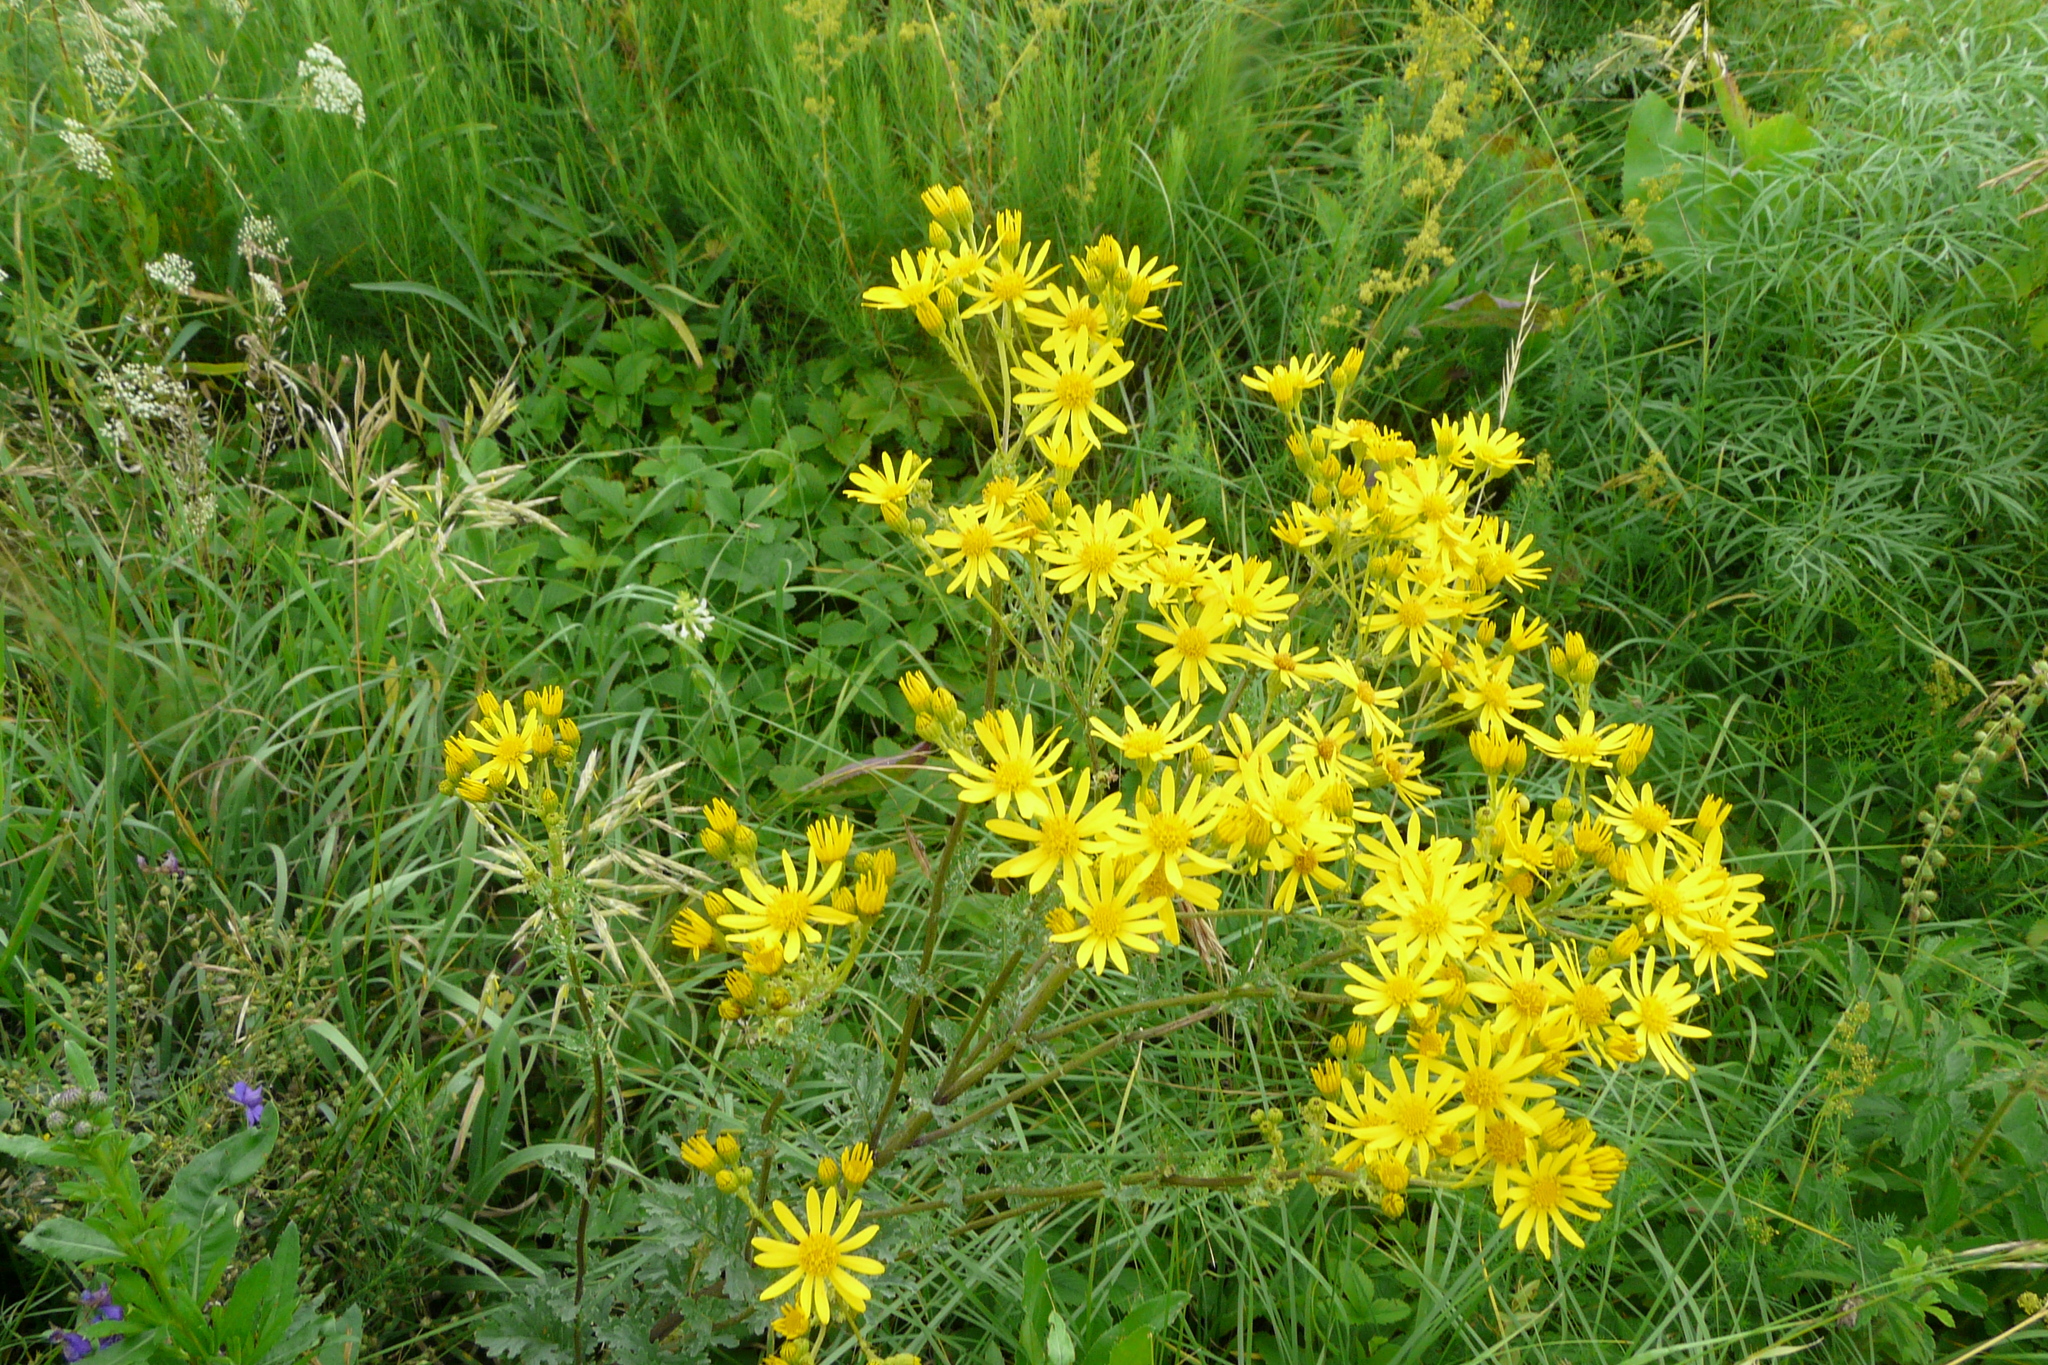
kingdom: Plantae
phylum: Tracheophyta
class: Magnoliopsida
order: Asterales
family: Asteraceae
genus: Jacobaea
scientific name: Jacobaea vulgaris
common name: Stinking willie
